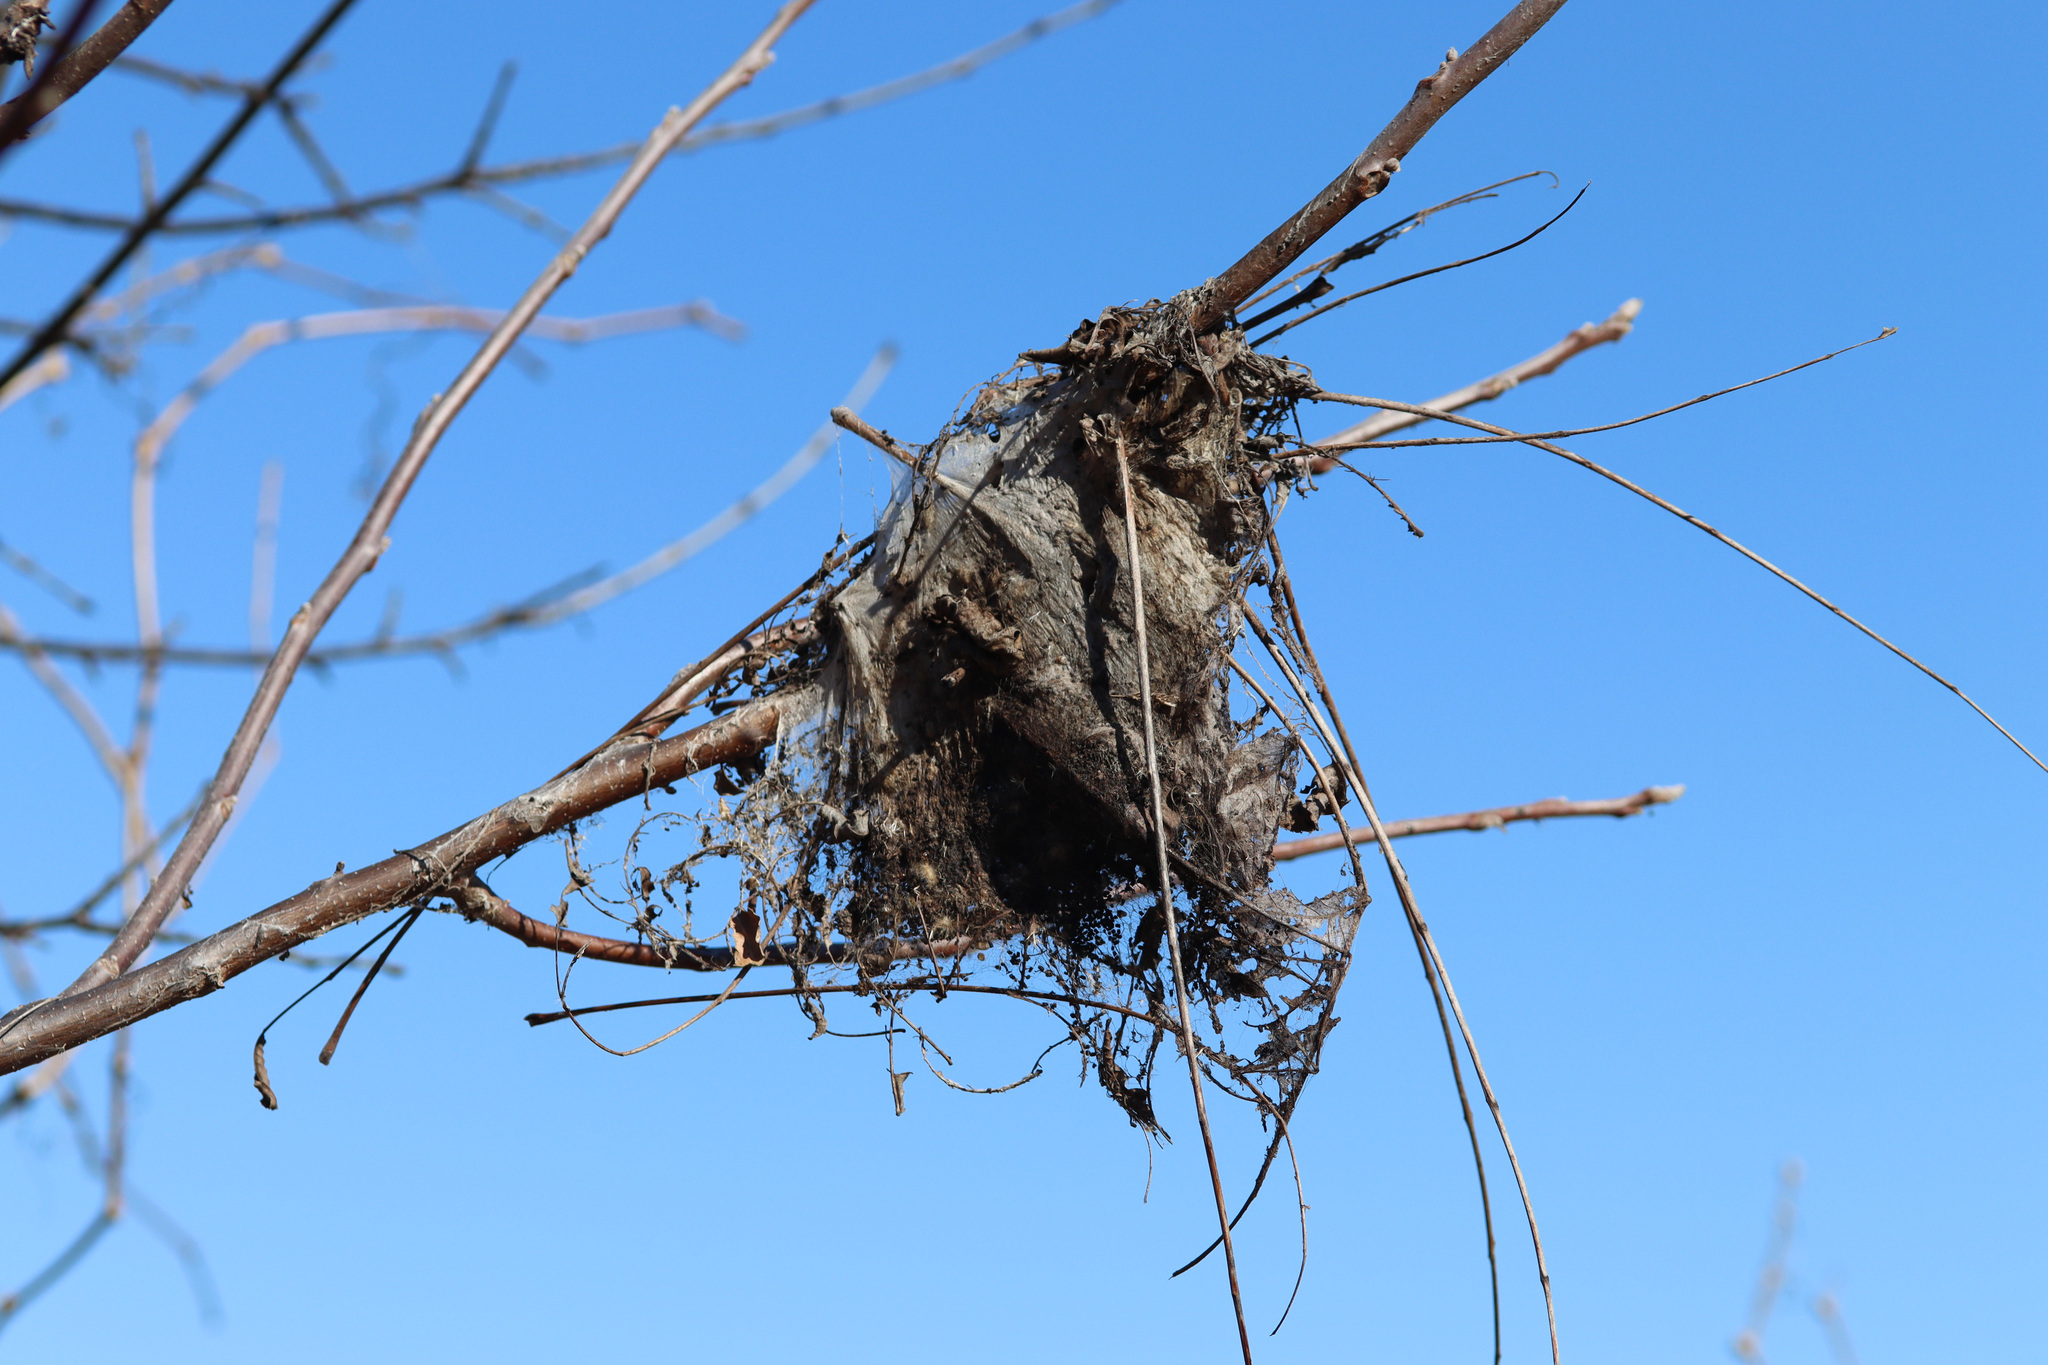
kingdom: Animalia
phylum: Arthropoda
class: Insecta
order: Lepidoptera
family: Erebidae
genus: Hyphantria
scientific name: Hyphantria cunea
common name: American white moth
